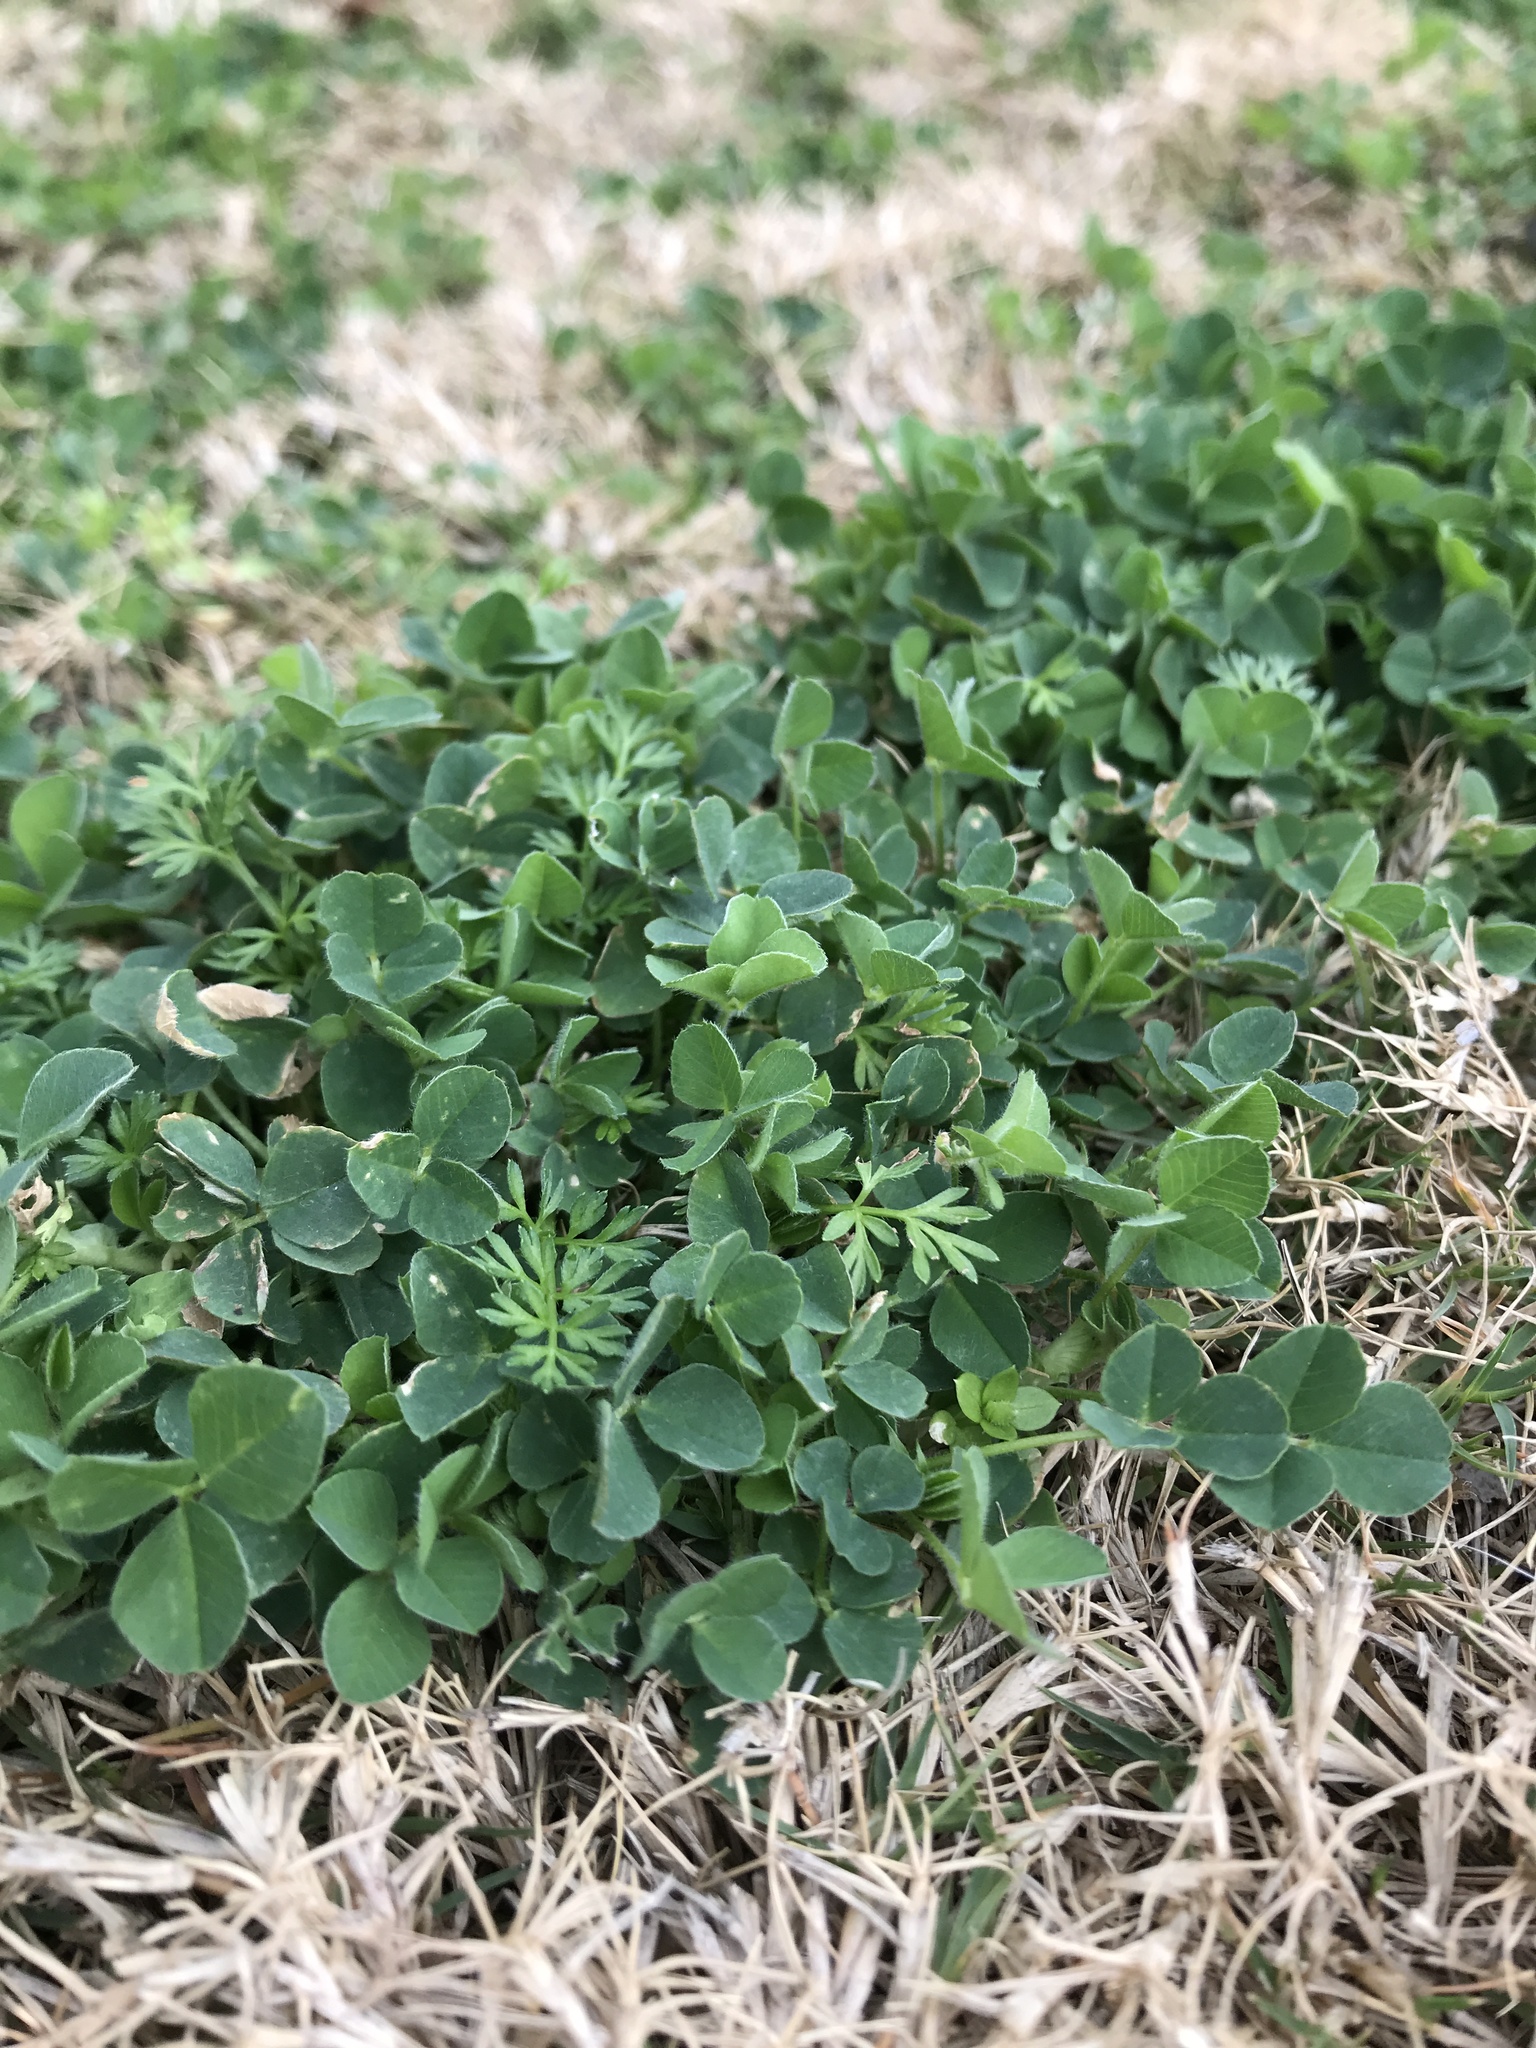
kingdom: Plantae
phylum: Tracheophyta
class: Magnoliopsida
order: Fabales
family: Fabaceae
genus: Trifolium
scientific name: Trifolium repens
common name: White clover
